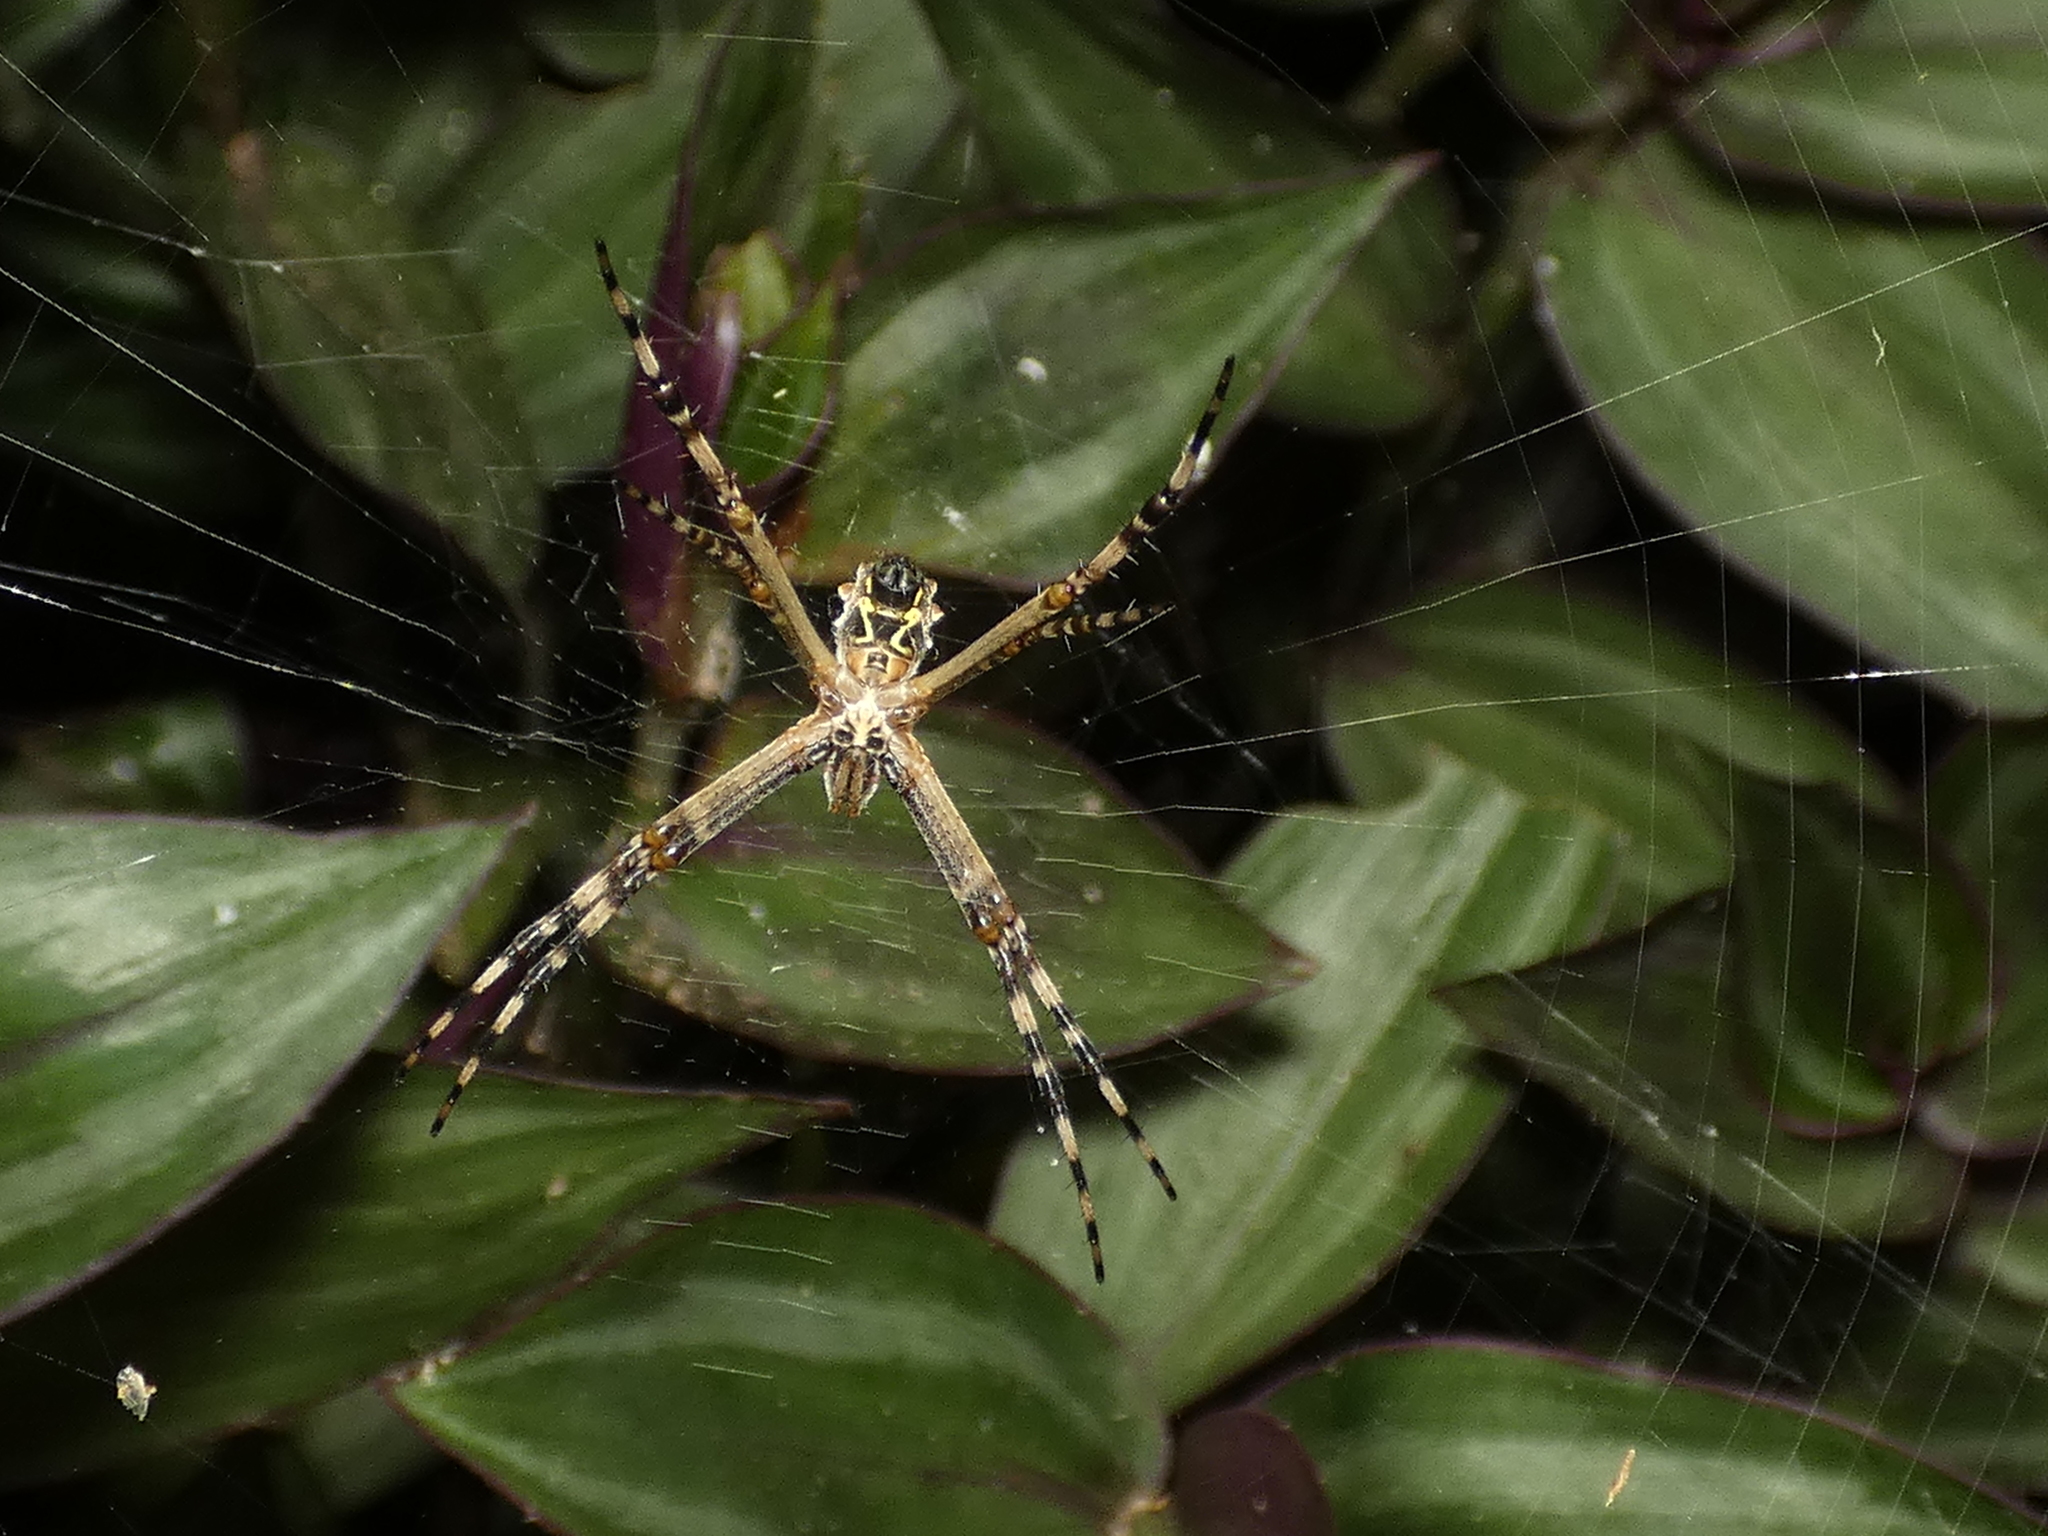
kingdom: Animalia
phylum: Arthropoda
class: Arachnida
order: Araneae
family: Araneidae
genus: Argiope
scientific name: Argiope argentata
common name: Orb weavers
